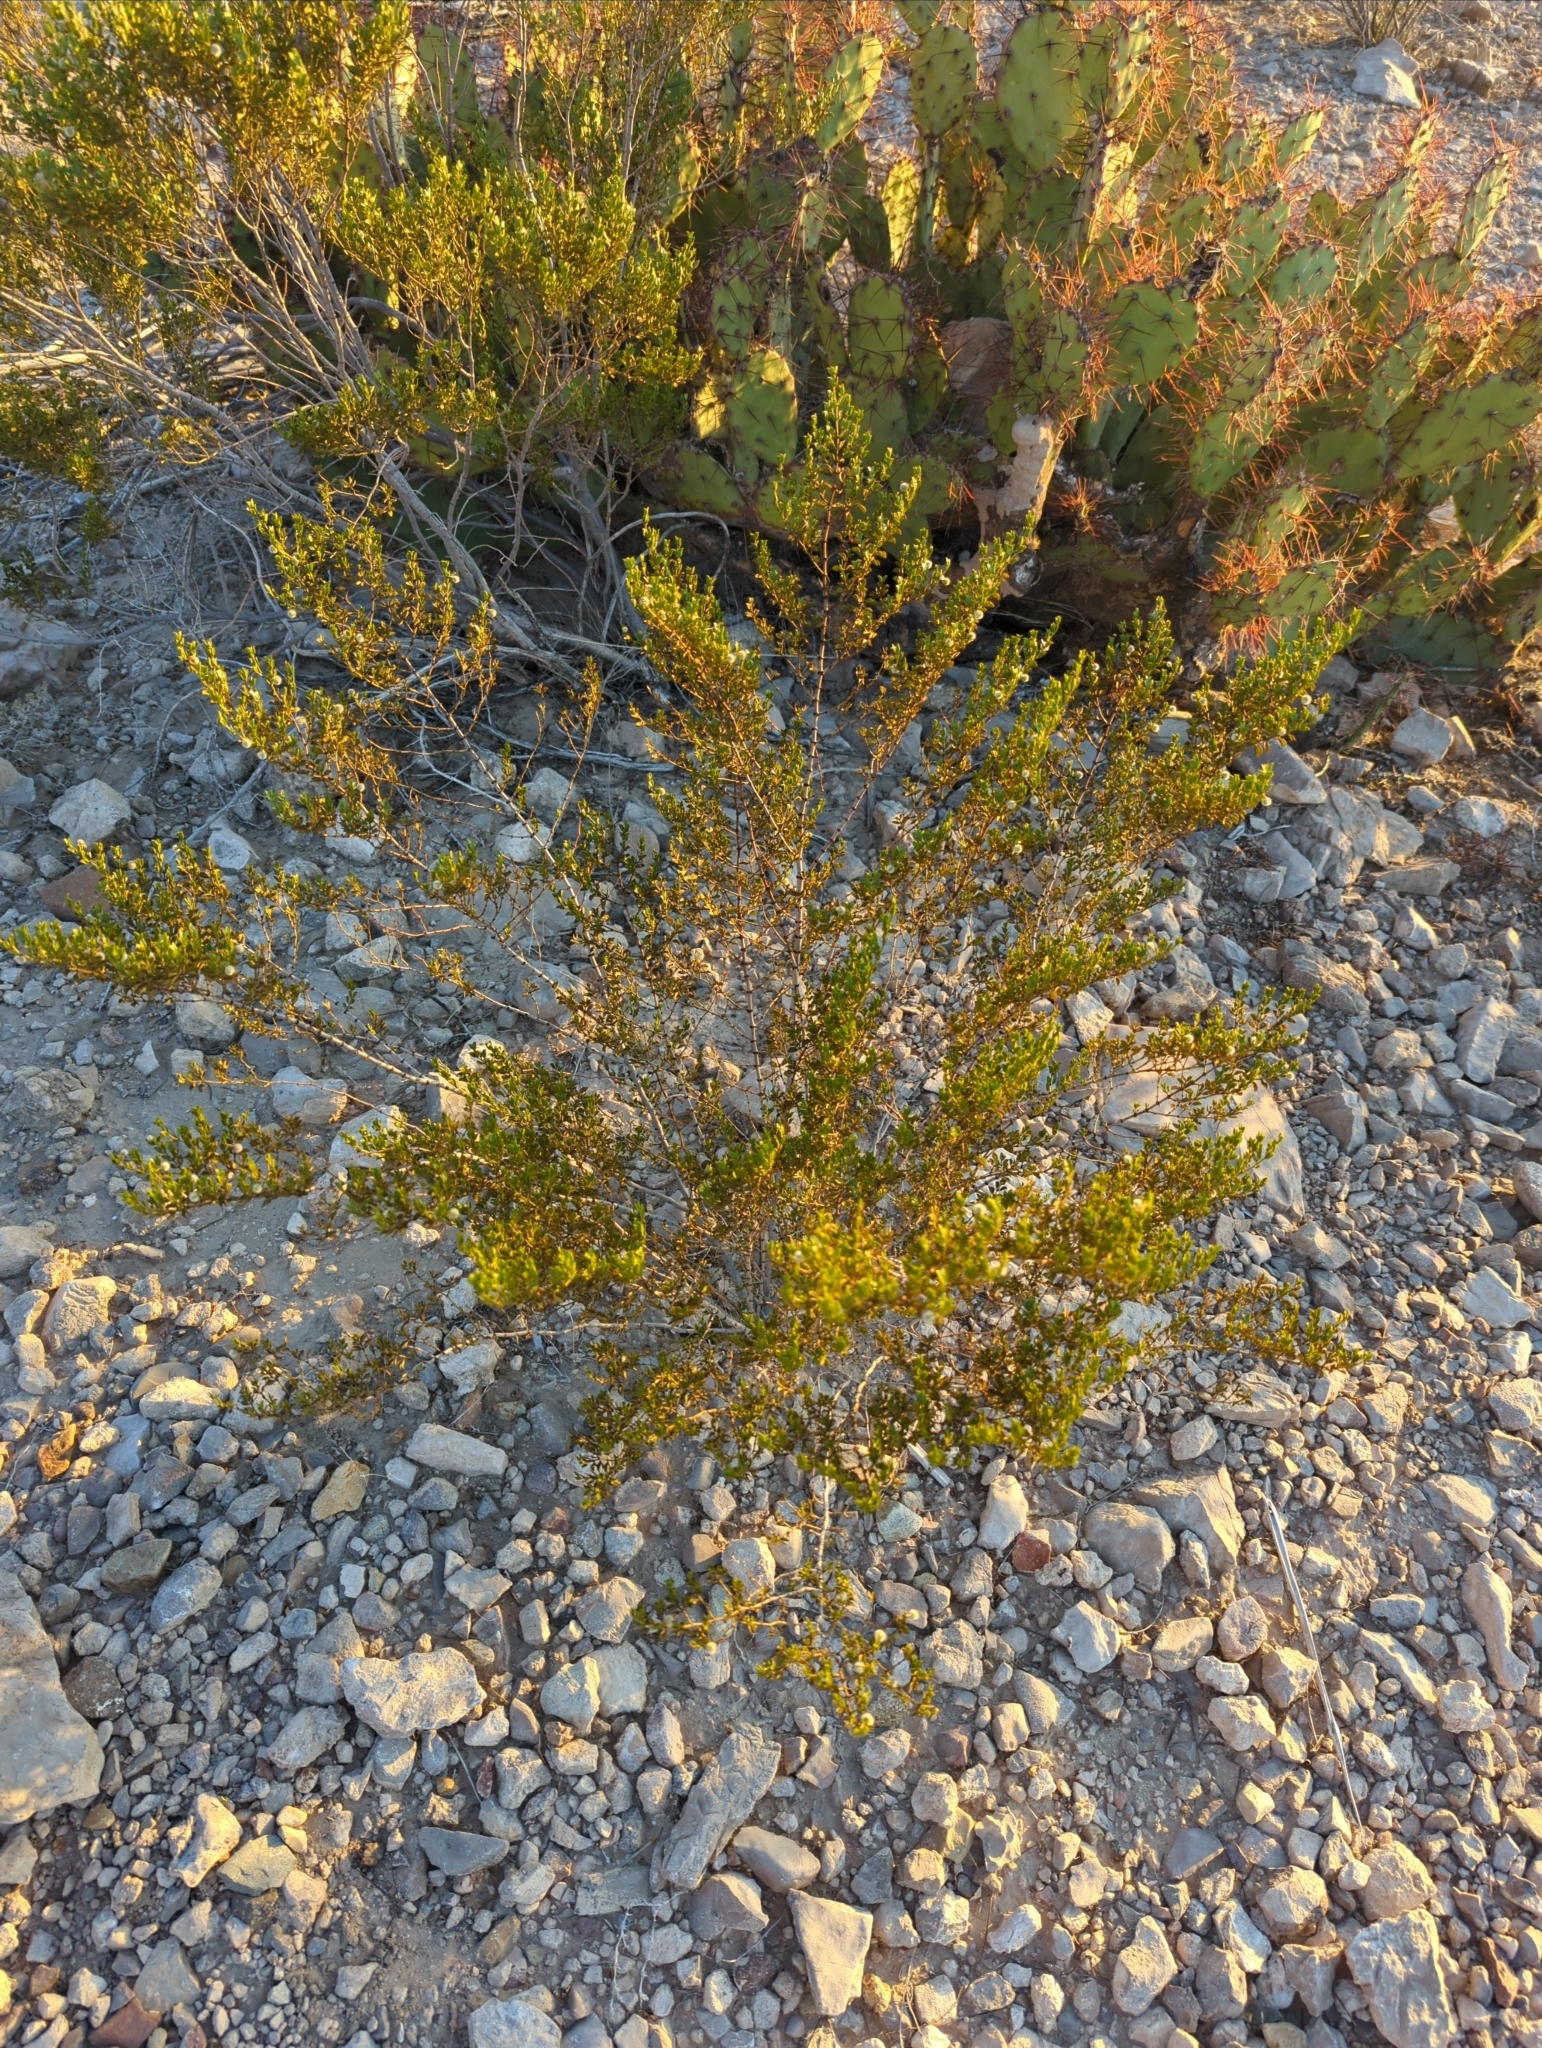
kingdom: Plantae
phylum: Tracheophyta
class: Magnoliopsida
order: Zygophyllales
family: Zygophyllaceae
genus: Larrea
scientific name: Larrea tridentata
